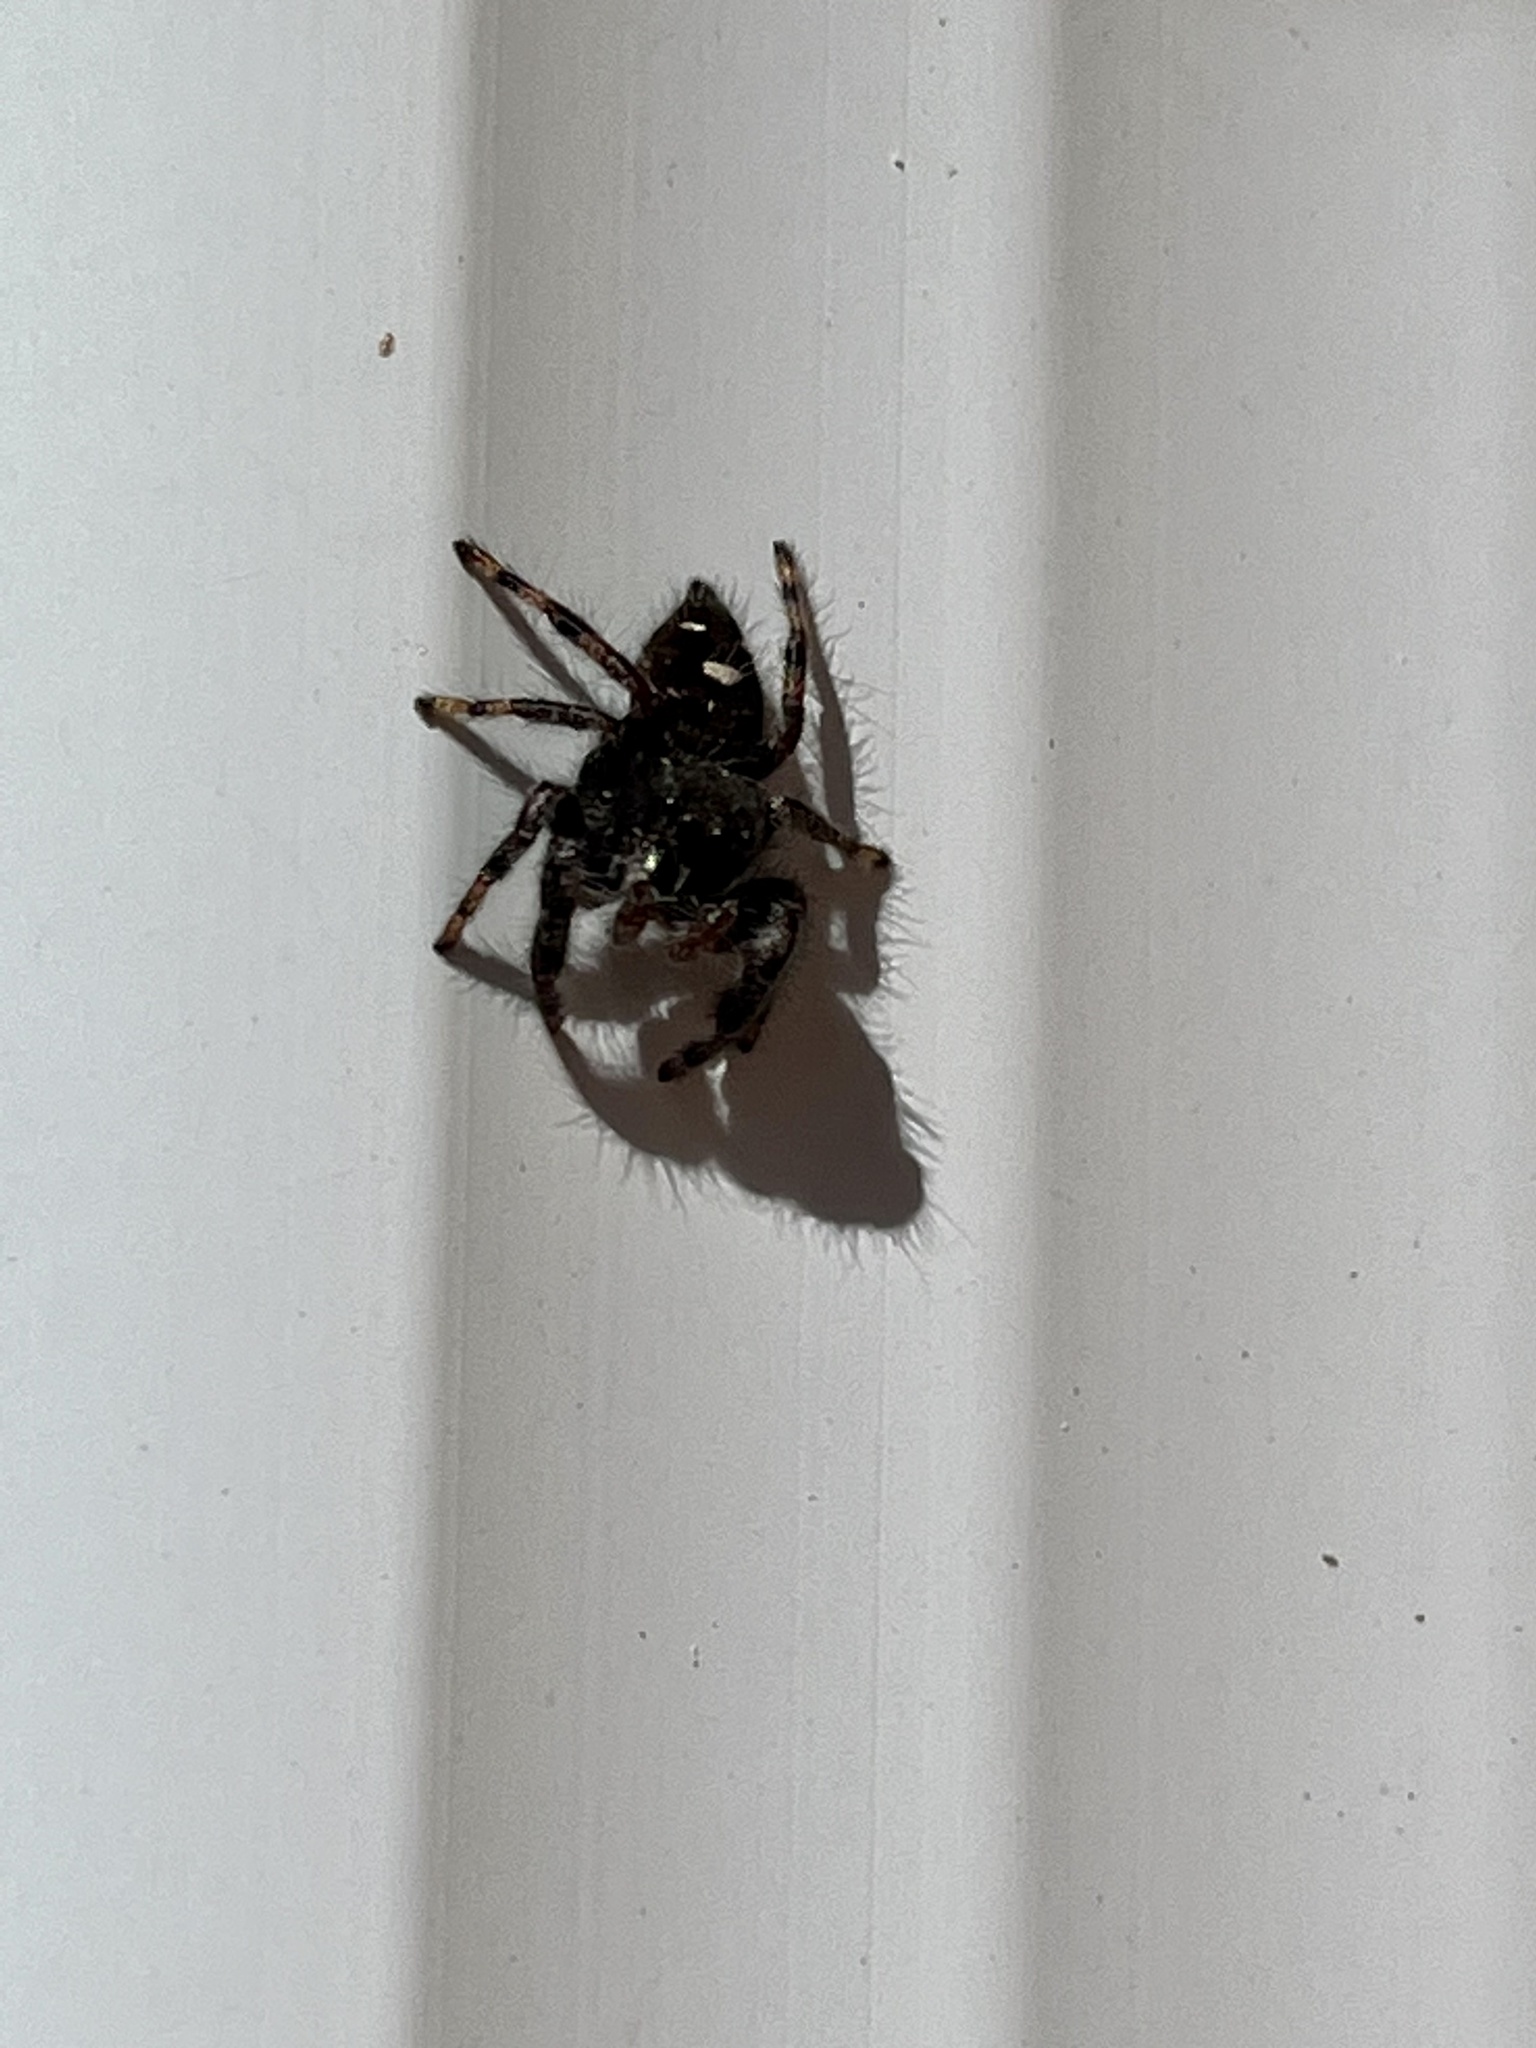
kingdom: Animalia
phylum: Arthropoda
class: Arachnida
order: Araneae
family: Salticidae
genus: Phidippus
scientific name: Phidippus audax
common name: Bold jumper
